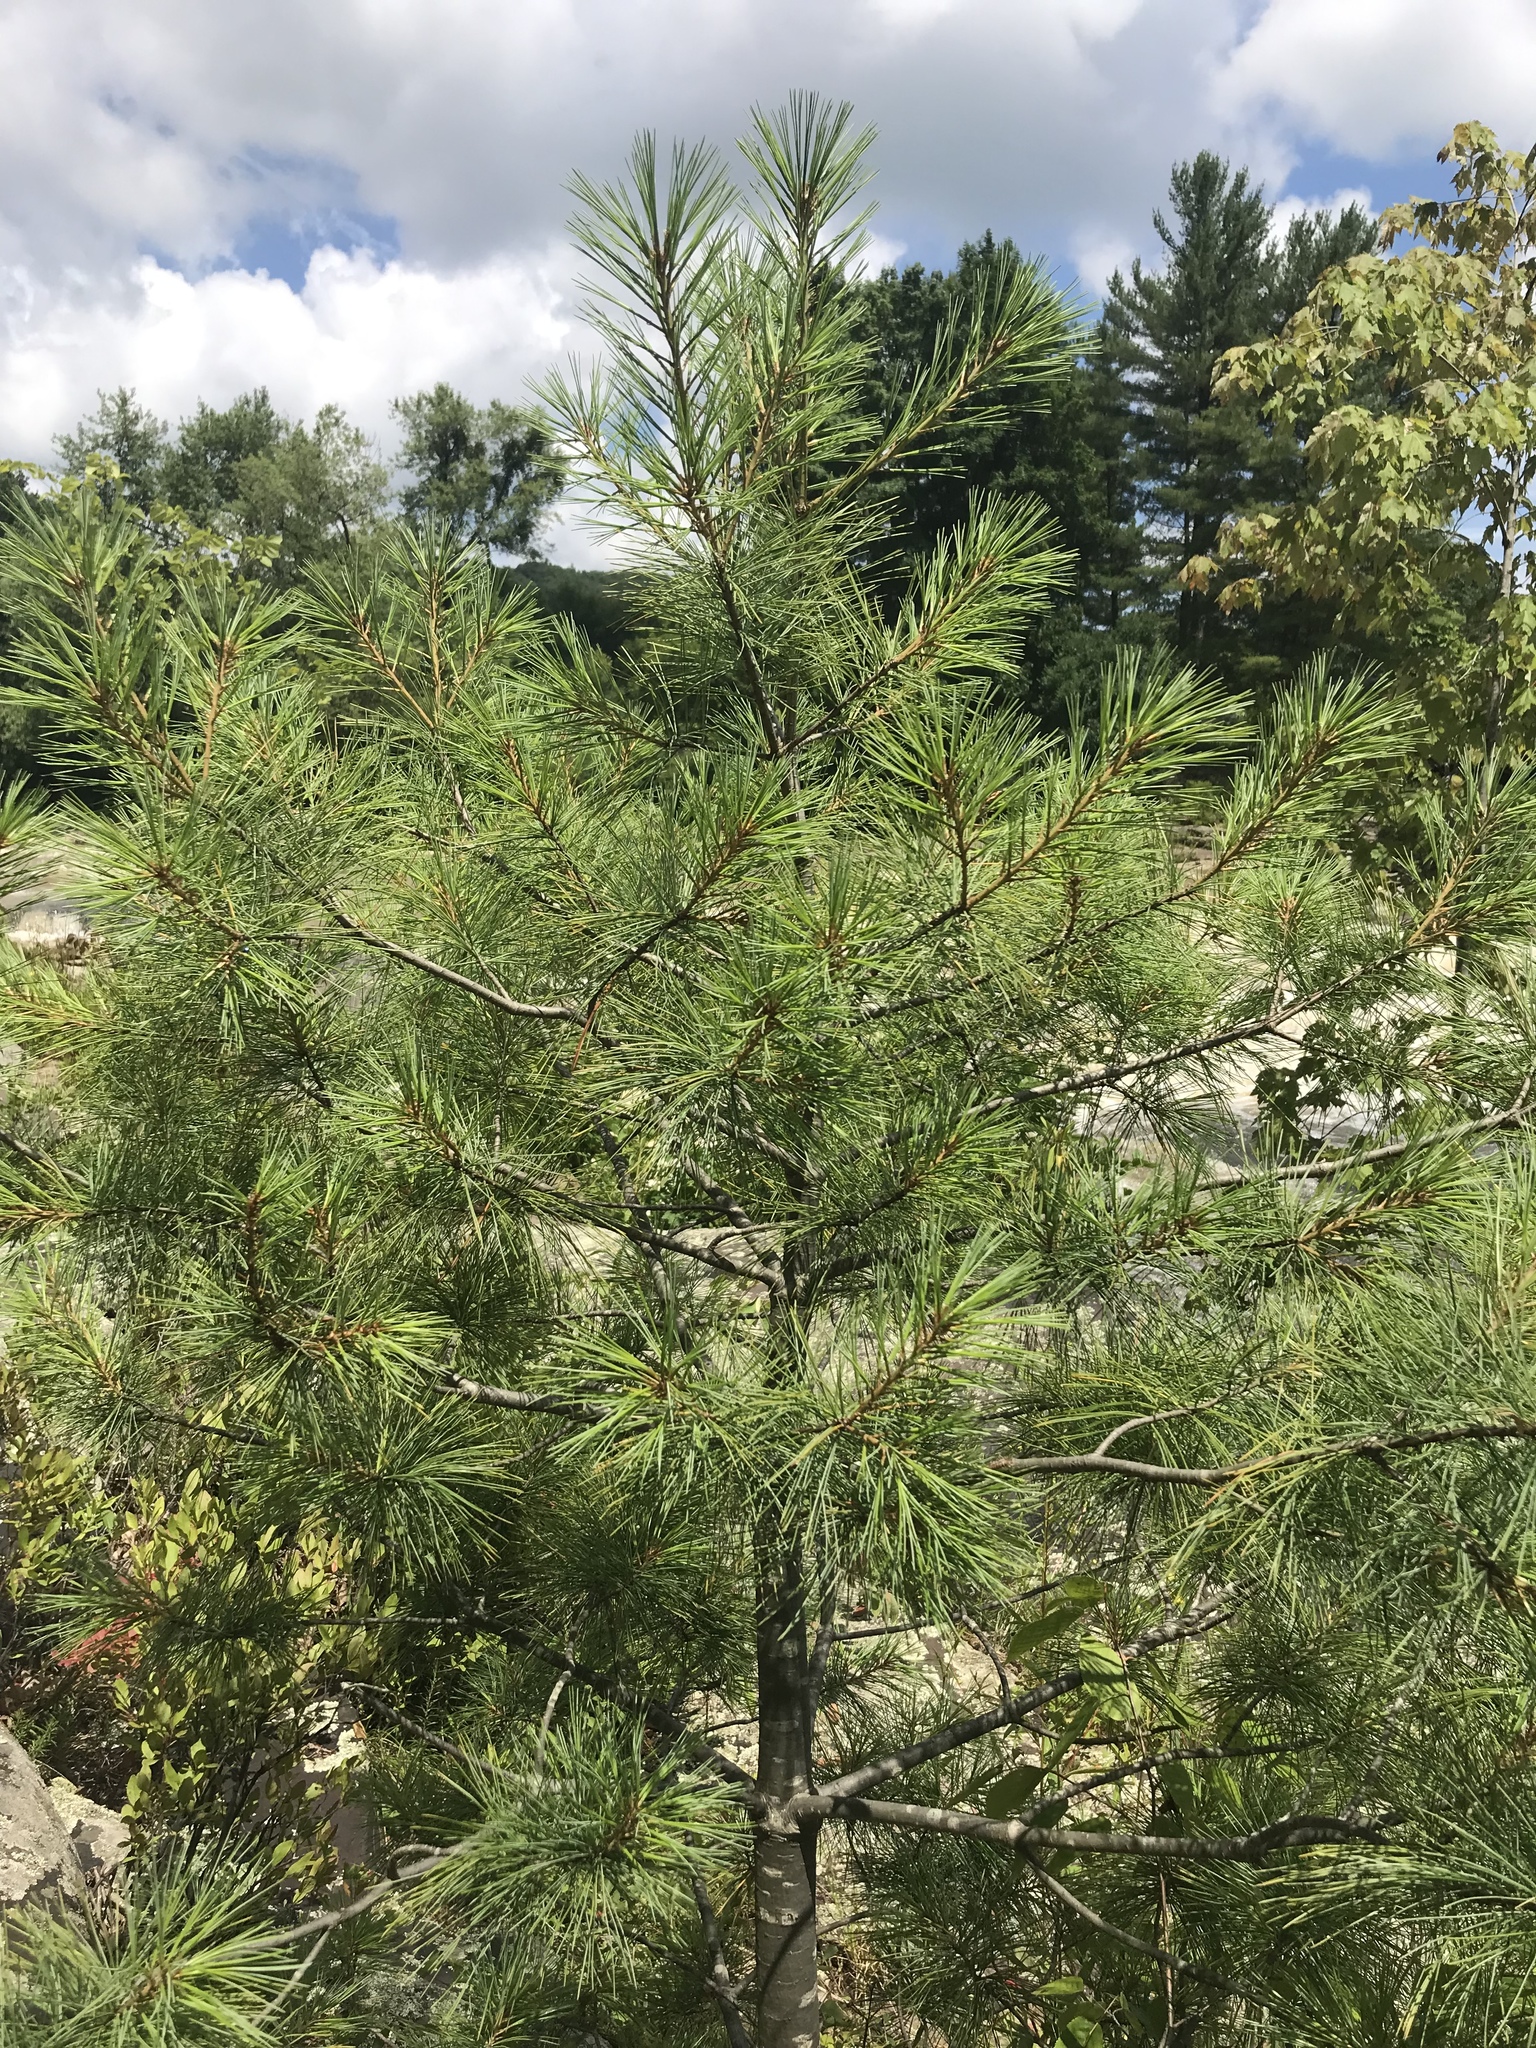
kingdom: Plantae
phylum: Tracheophyta
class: Pinopsida
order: Pinales
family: Pinaceae
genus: Pinus
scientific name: Pinus strobus
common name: Weymouth pine
